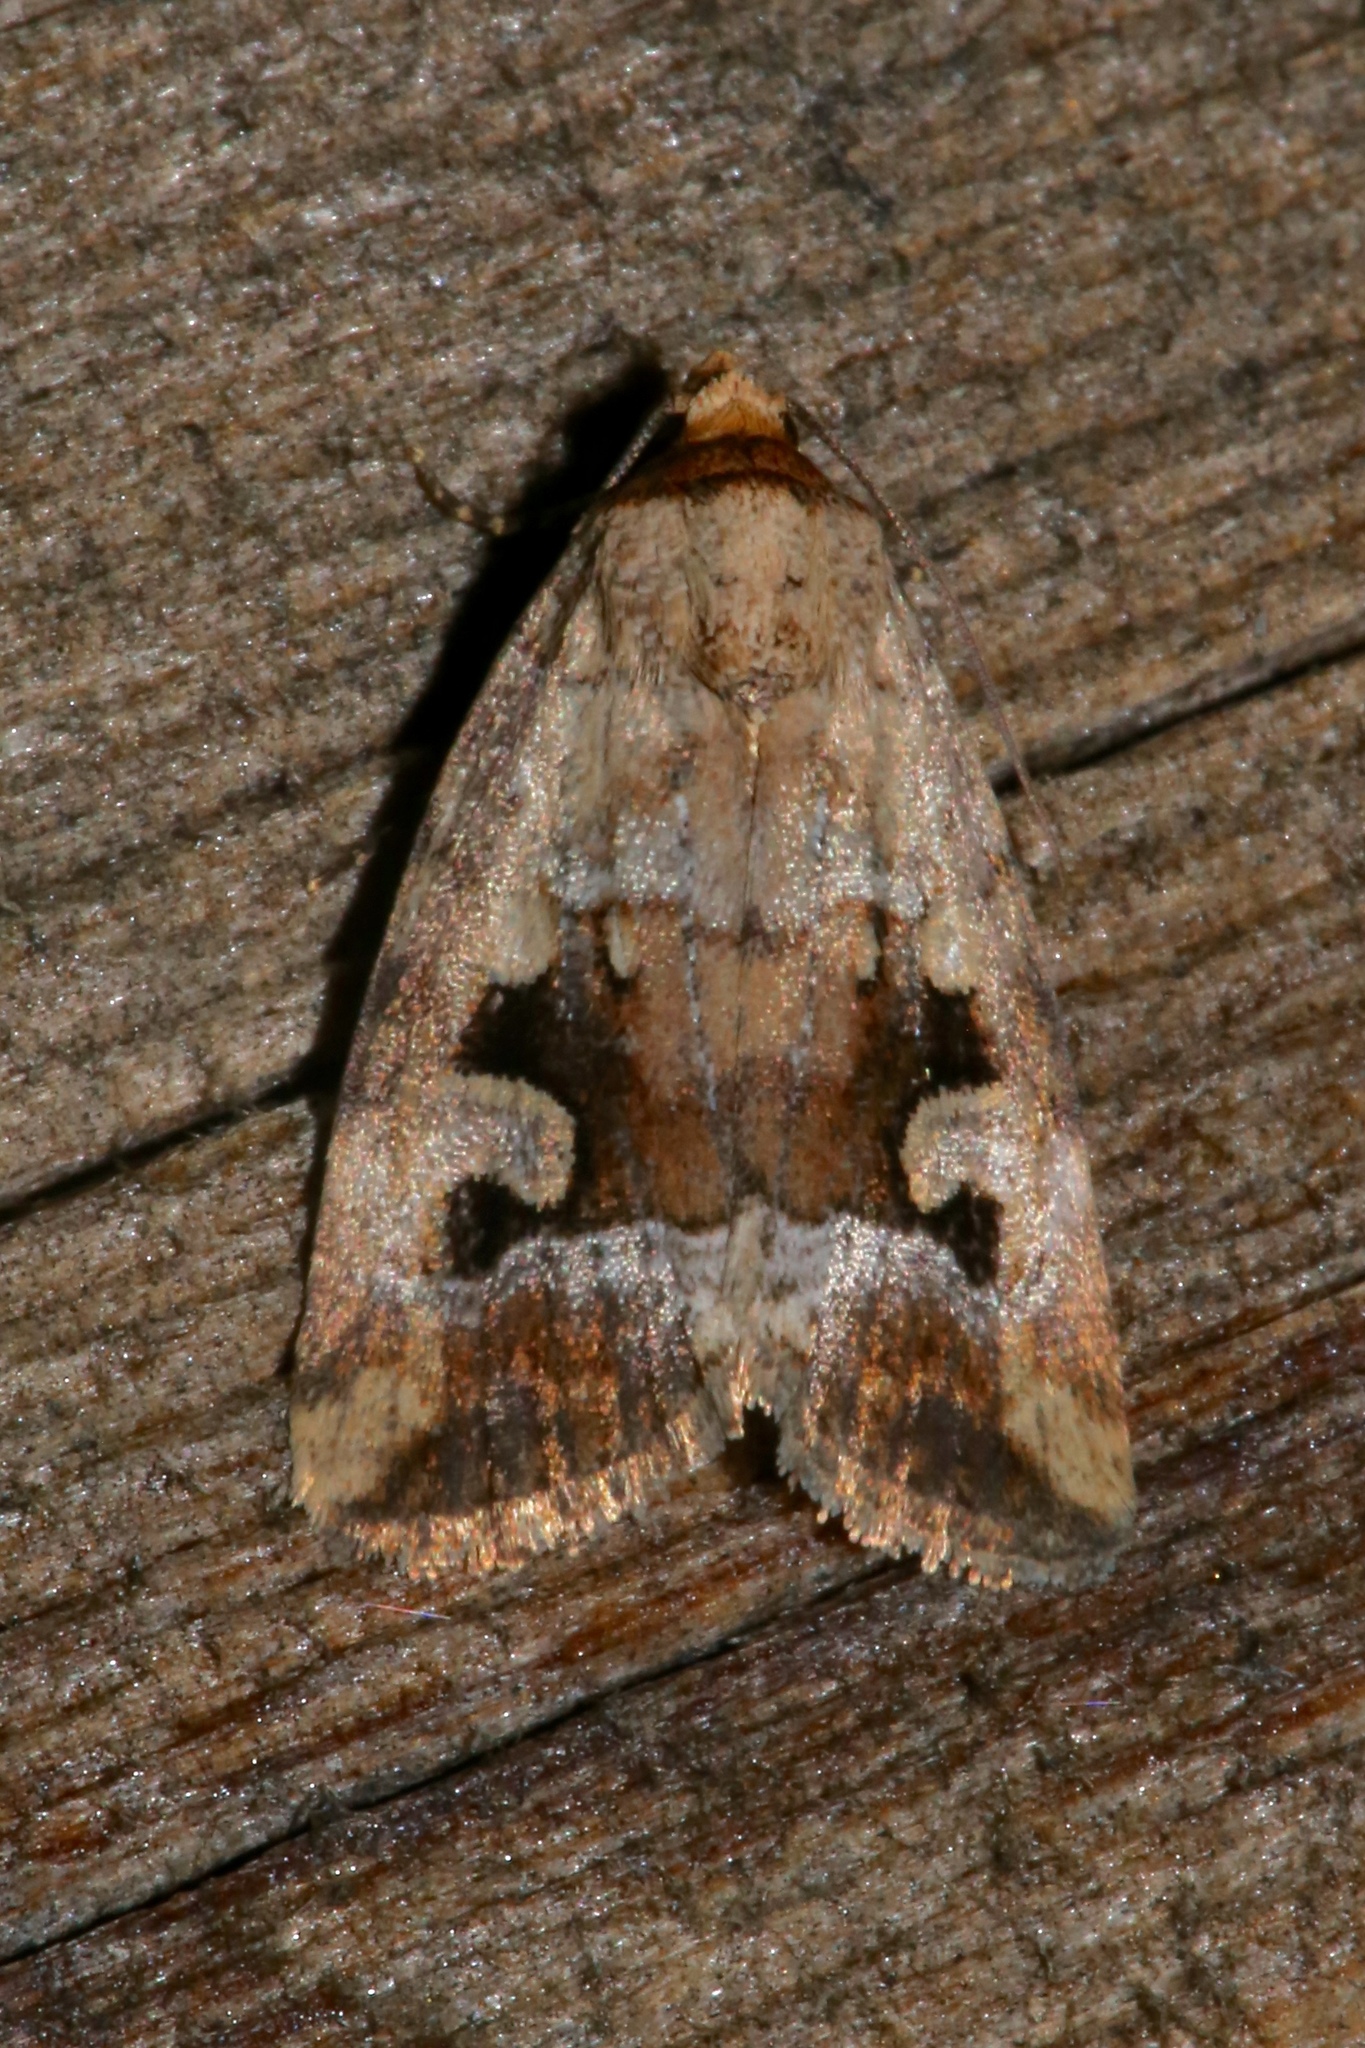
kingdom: Animalia
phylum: Arthropoda
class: Insecta
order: Lepidoptera
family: Noctuidae
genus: Elaphria
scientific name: Elaphria alapallida
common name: Pale-winged midget
